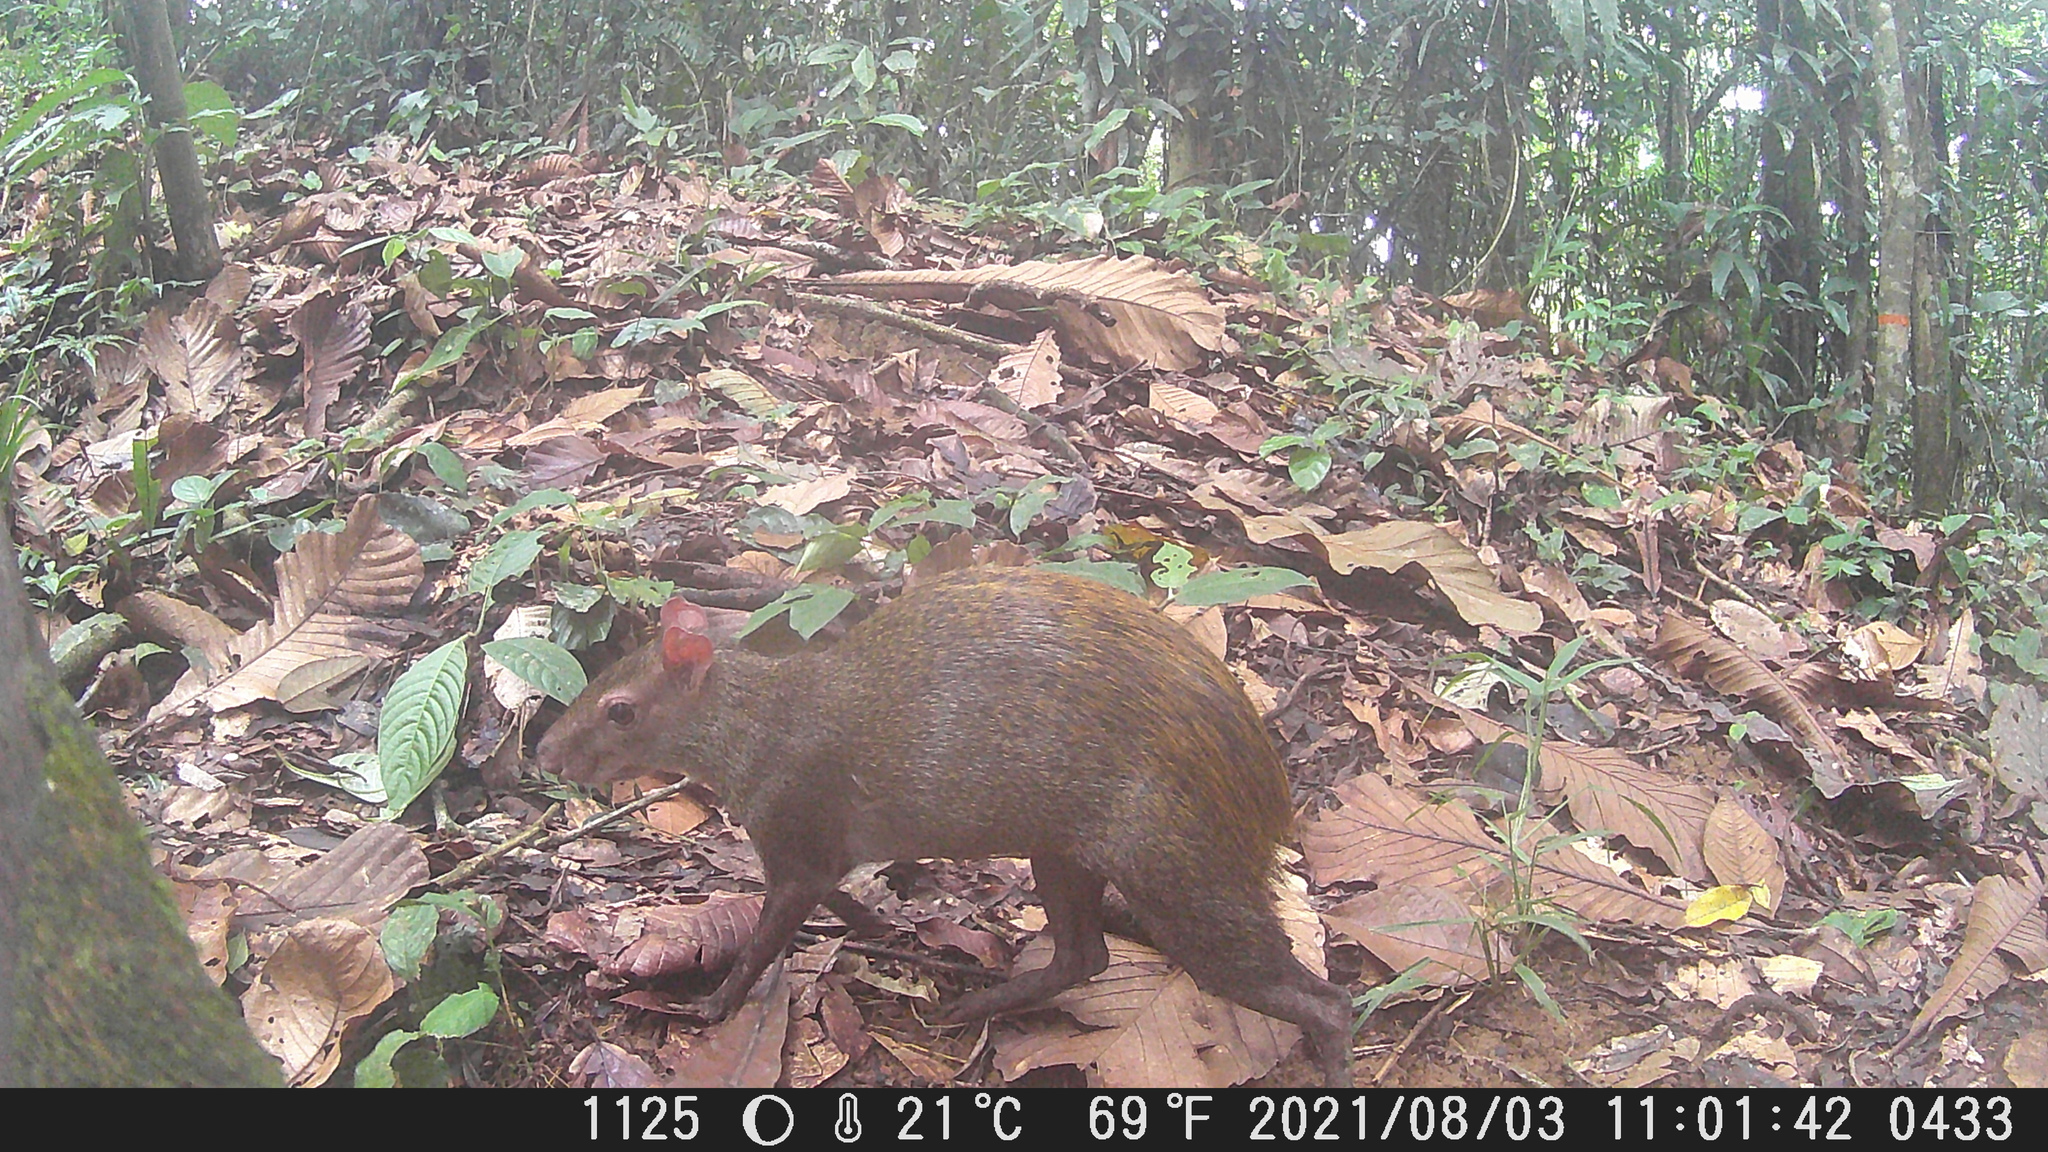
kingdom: Animalia
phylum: Chordata
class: Mammalia
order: Rodentia
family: Dasyproctidae
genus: Dasyprocta
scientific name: Dasyprocta punctata
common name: Central american agouti
